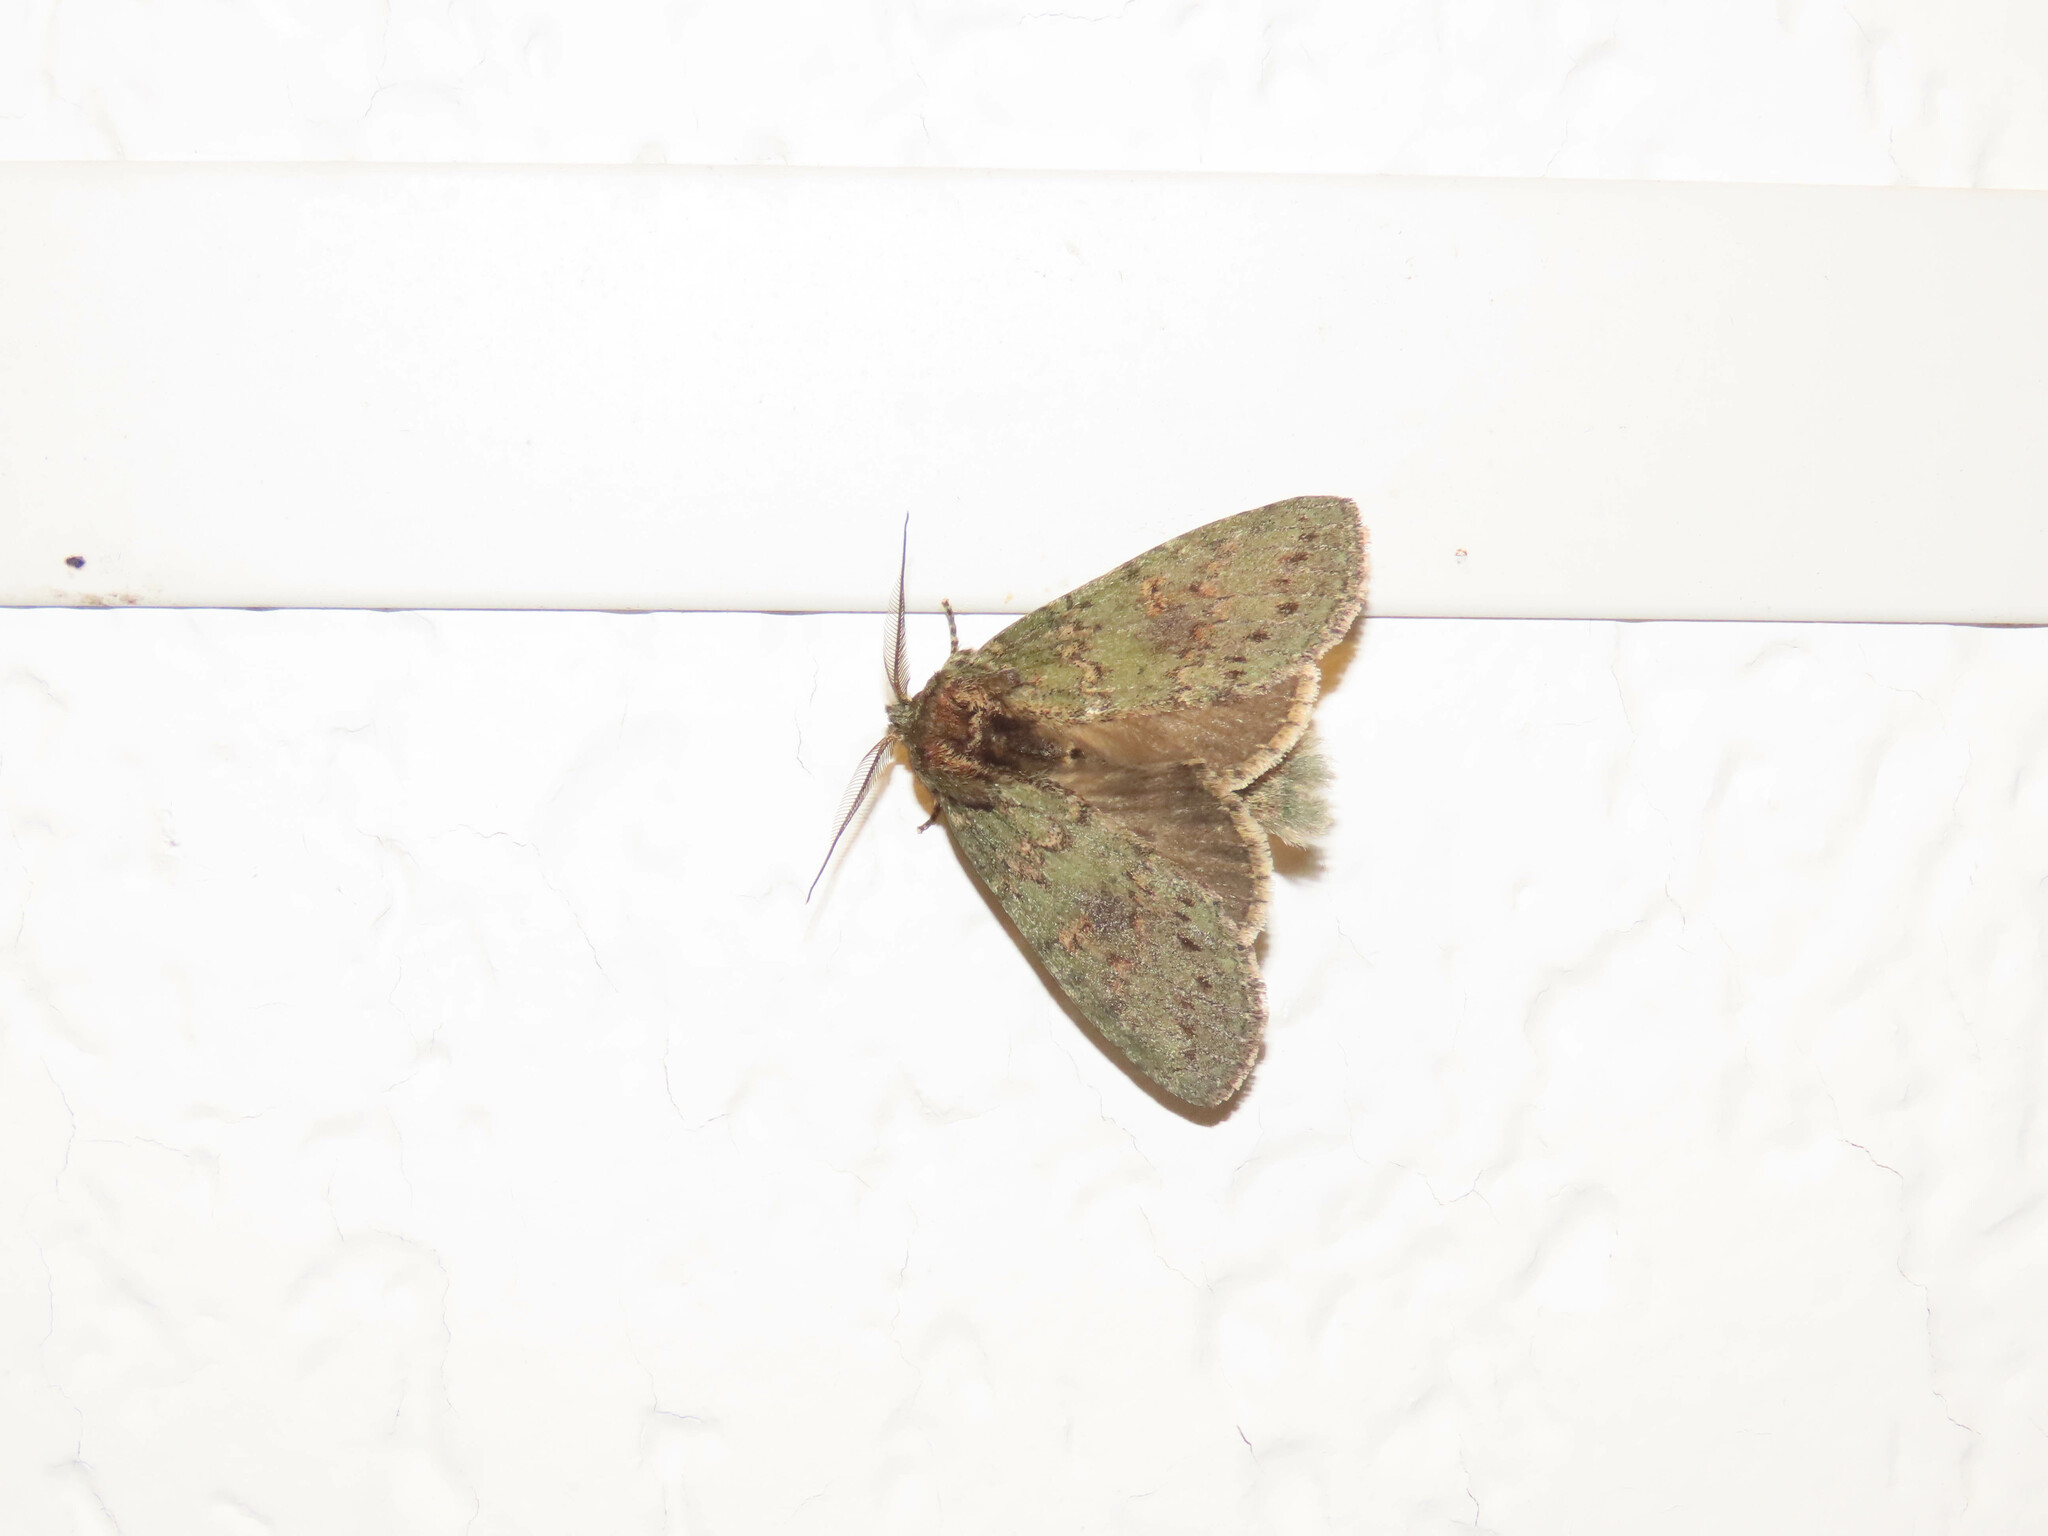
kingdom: Animalia
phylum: Arthropoda
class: Insecta
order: Lepidoptera
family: Notodontidae
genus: Disphragis
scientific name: Disphragis Cecrita biundata
